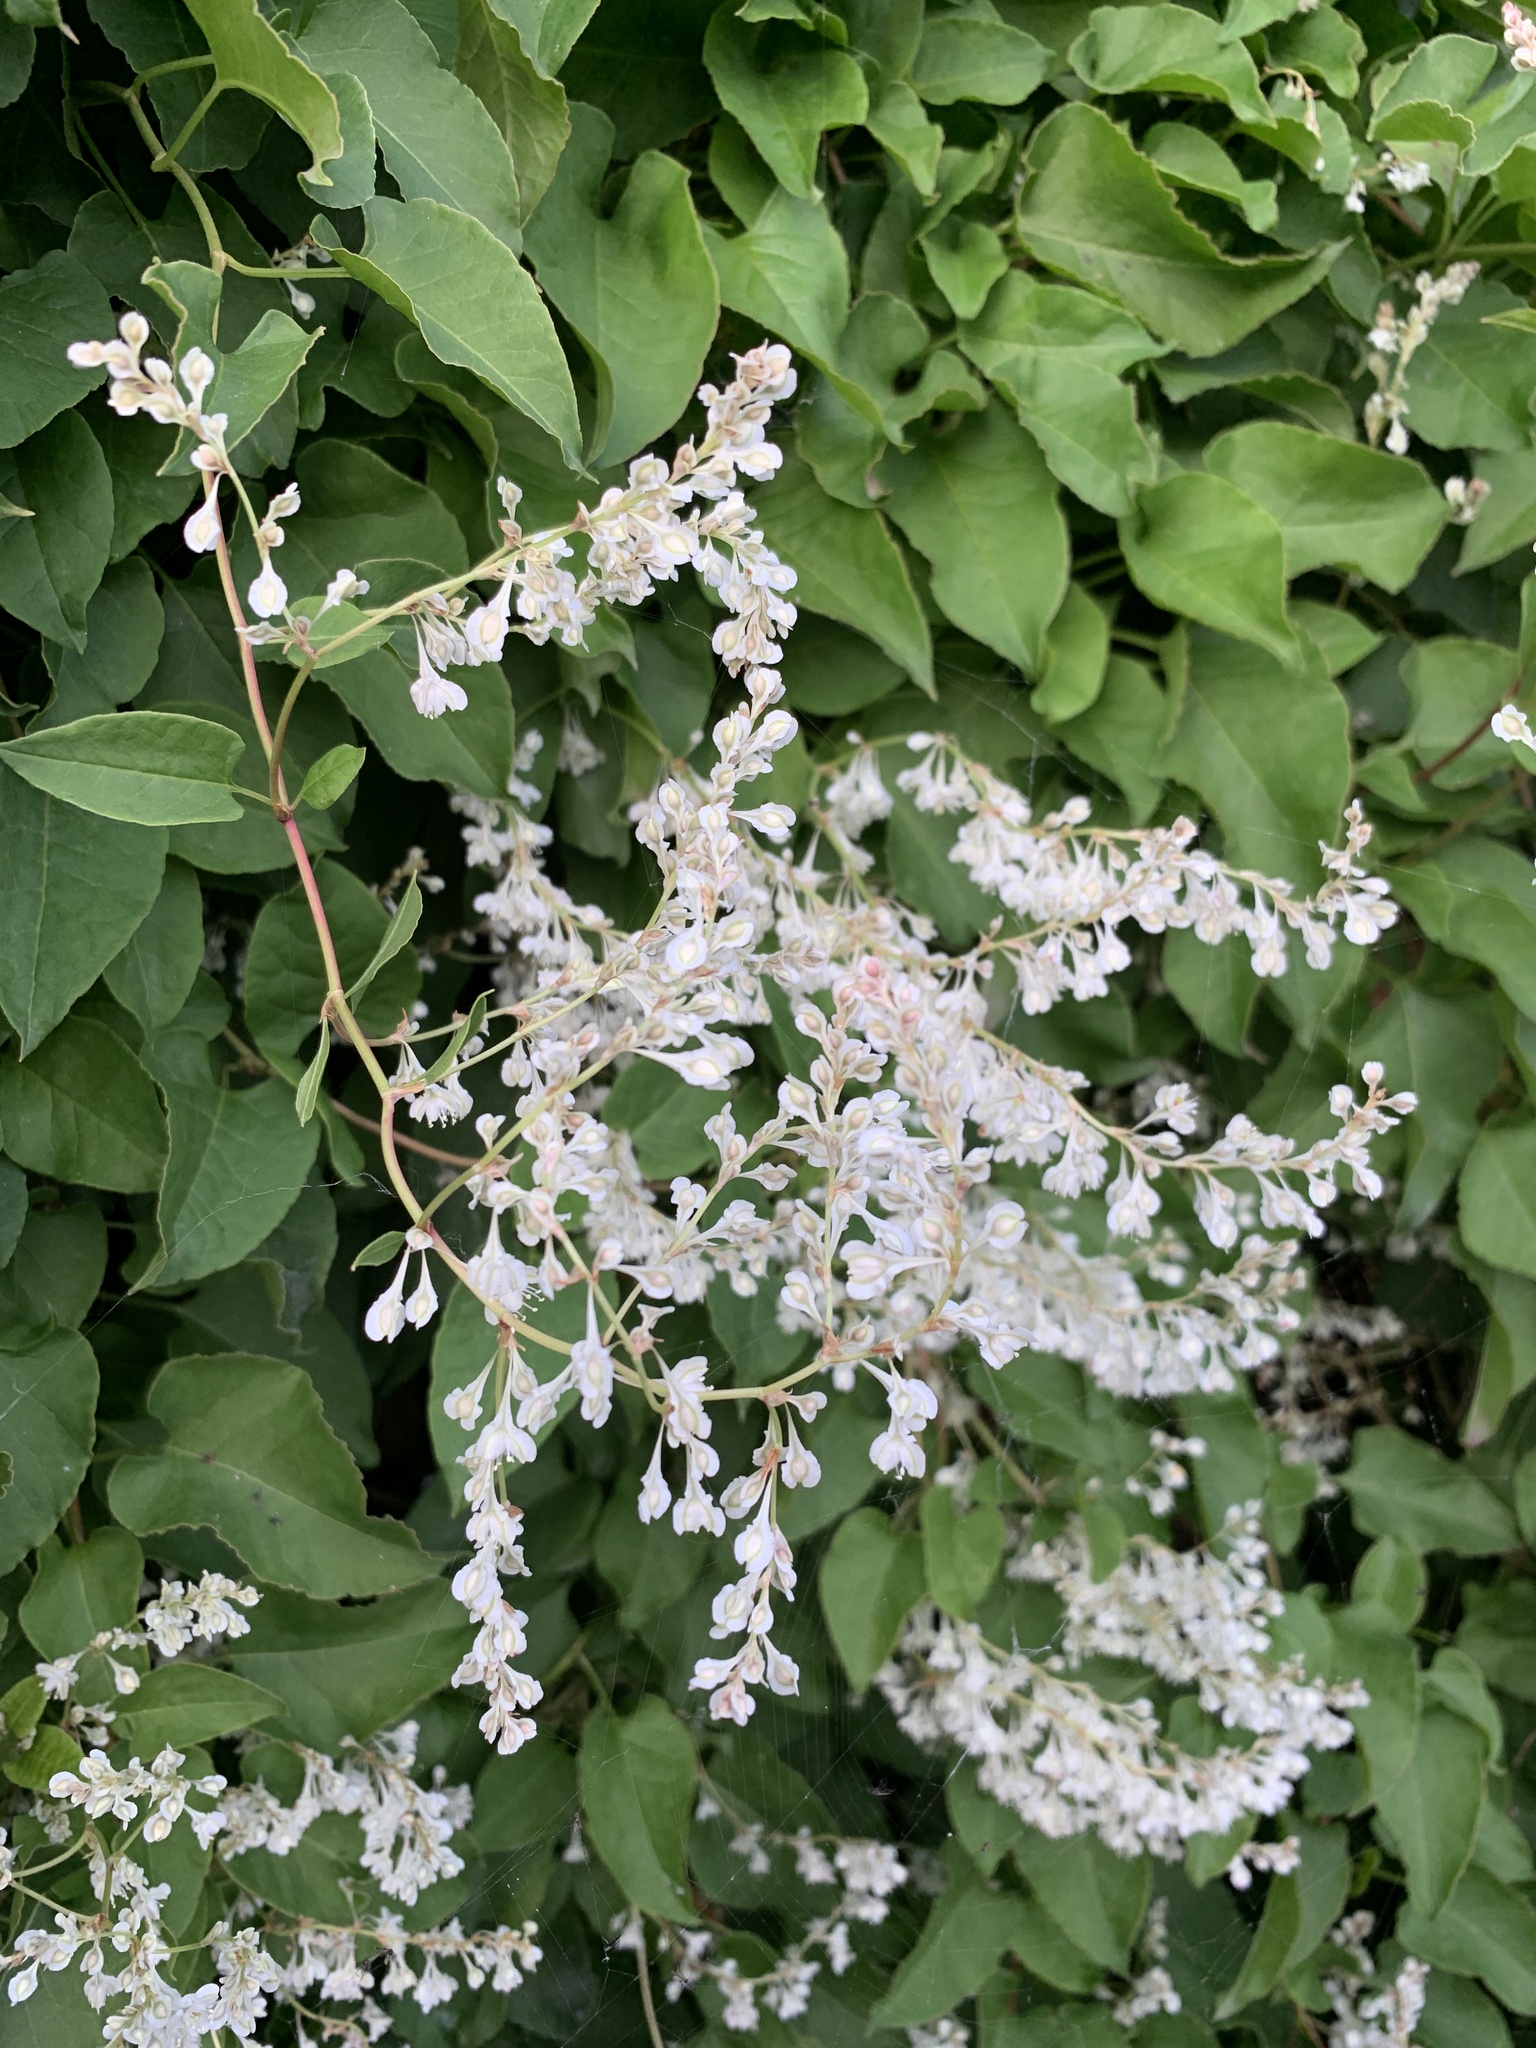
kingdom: Plantae
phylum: Tracheophyta
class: Magnoliopsida
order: Caryophyllales
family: Polygonaceae
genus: Fallopia
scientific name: Fallopia baldschuanica
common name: Russian-vine
